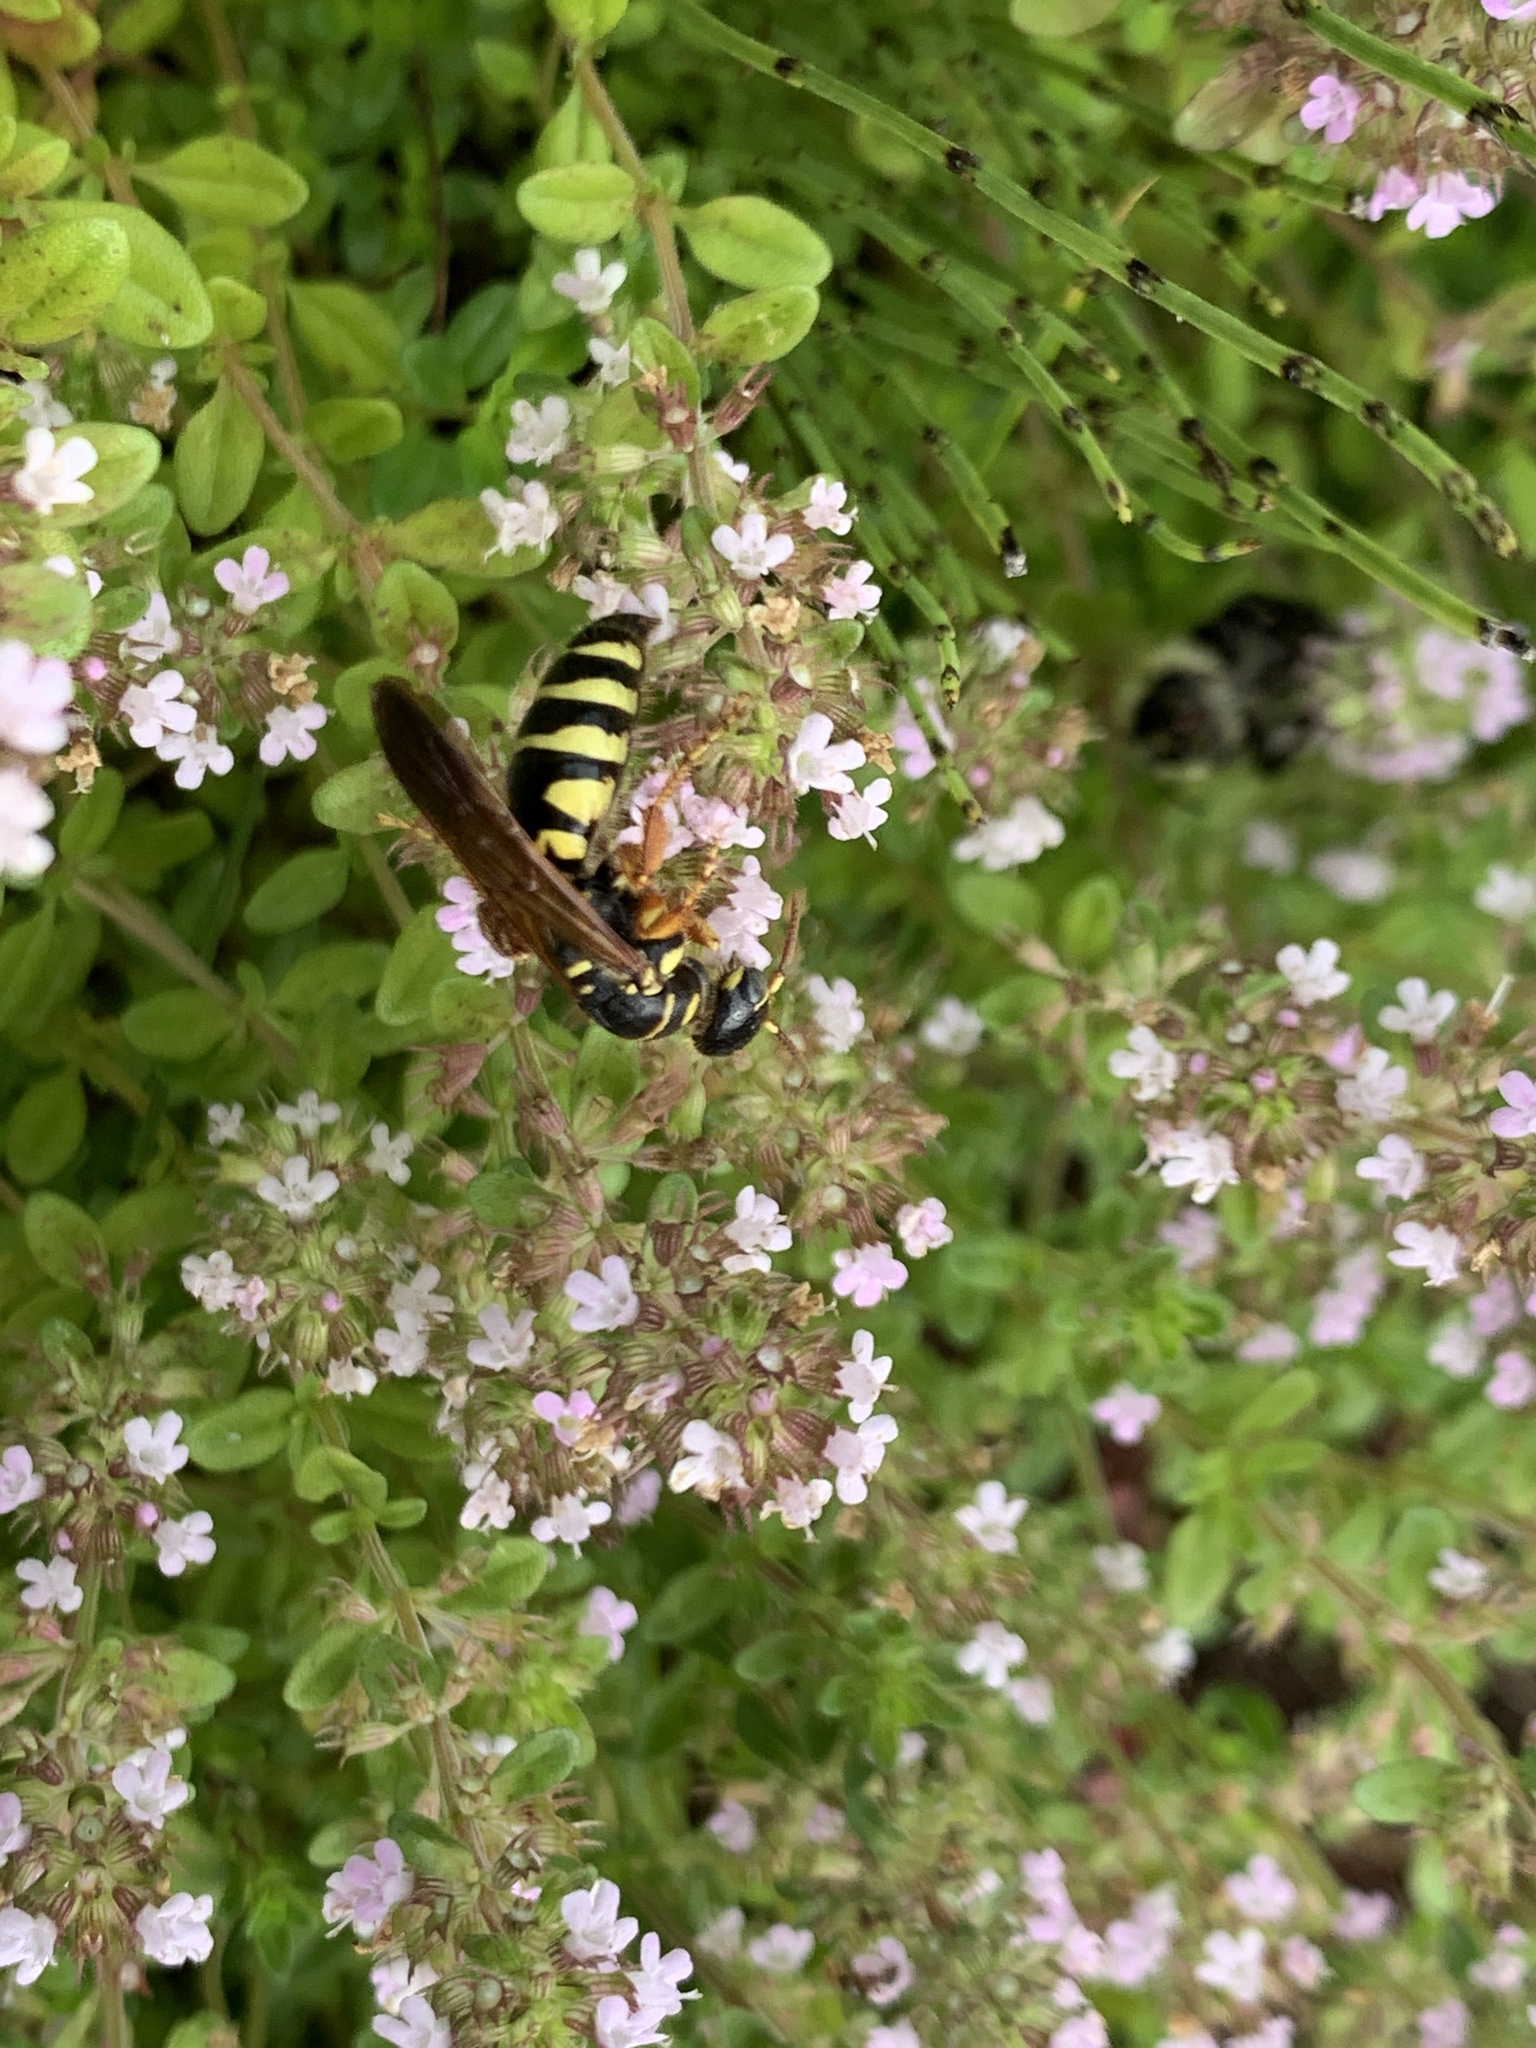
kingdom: Animalia
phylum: Arthropoda
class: Insecta
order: Hymenoptera
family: Tiphiidae
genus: Myzinum
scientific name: Myzinum quinquecinctum
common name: Five-banded thynnid wasp
